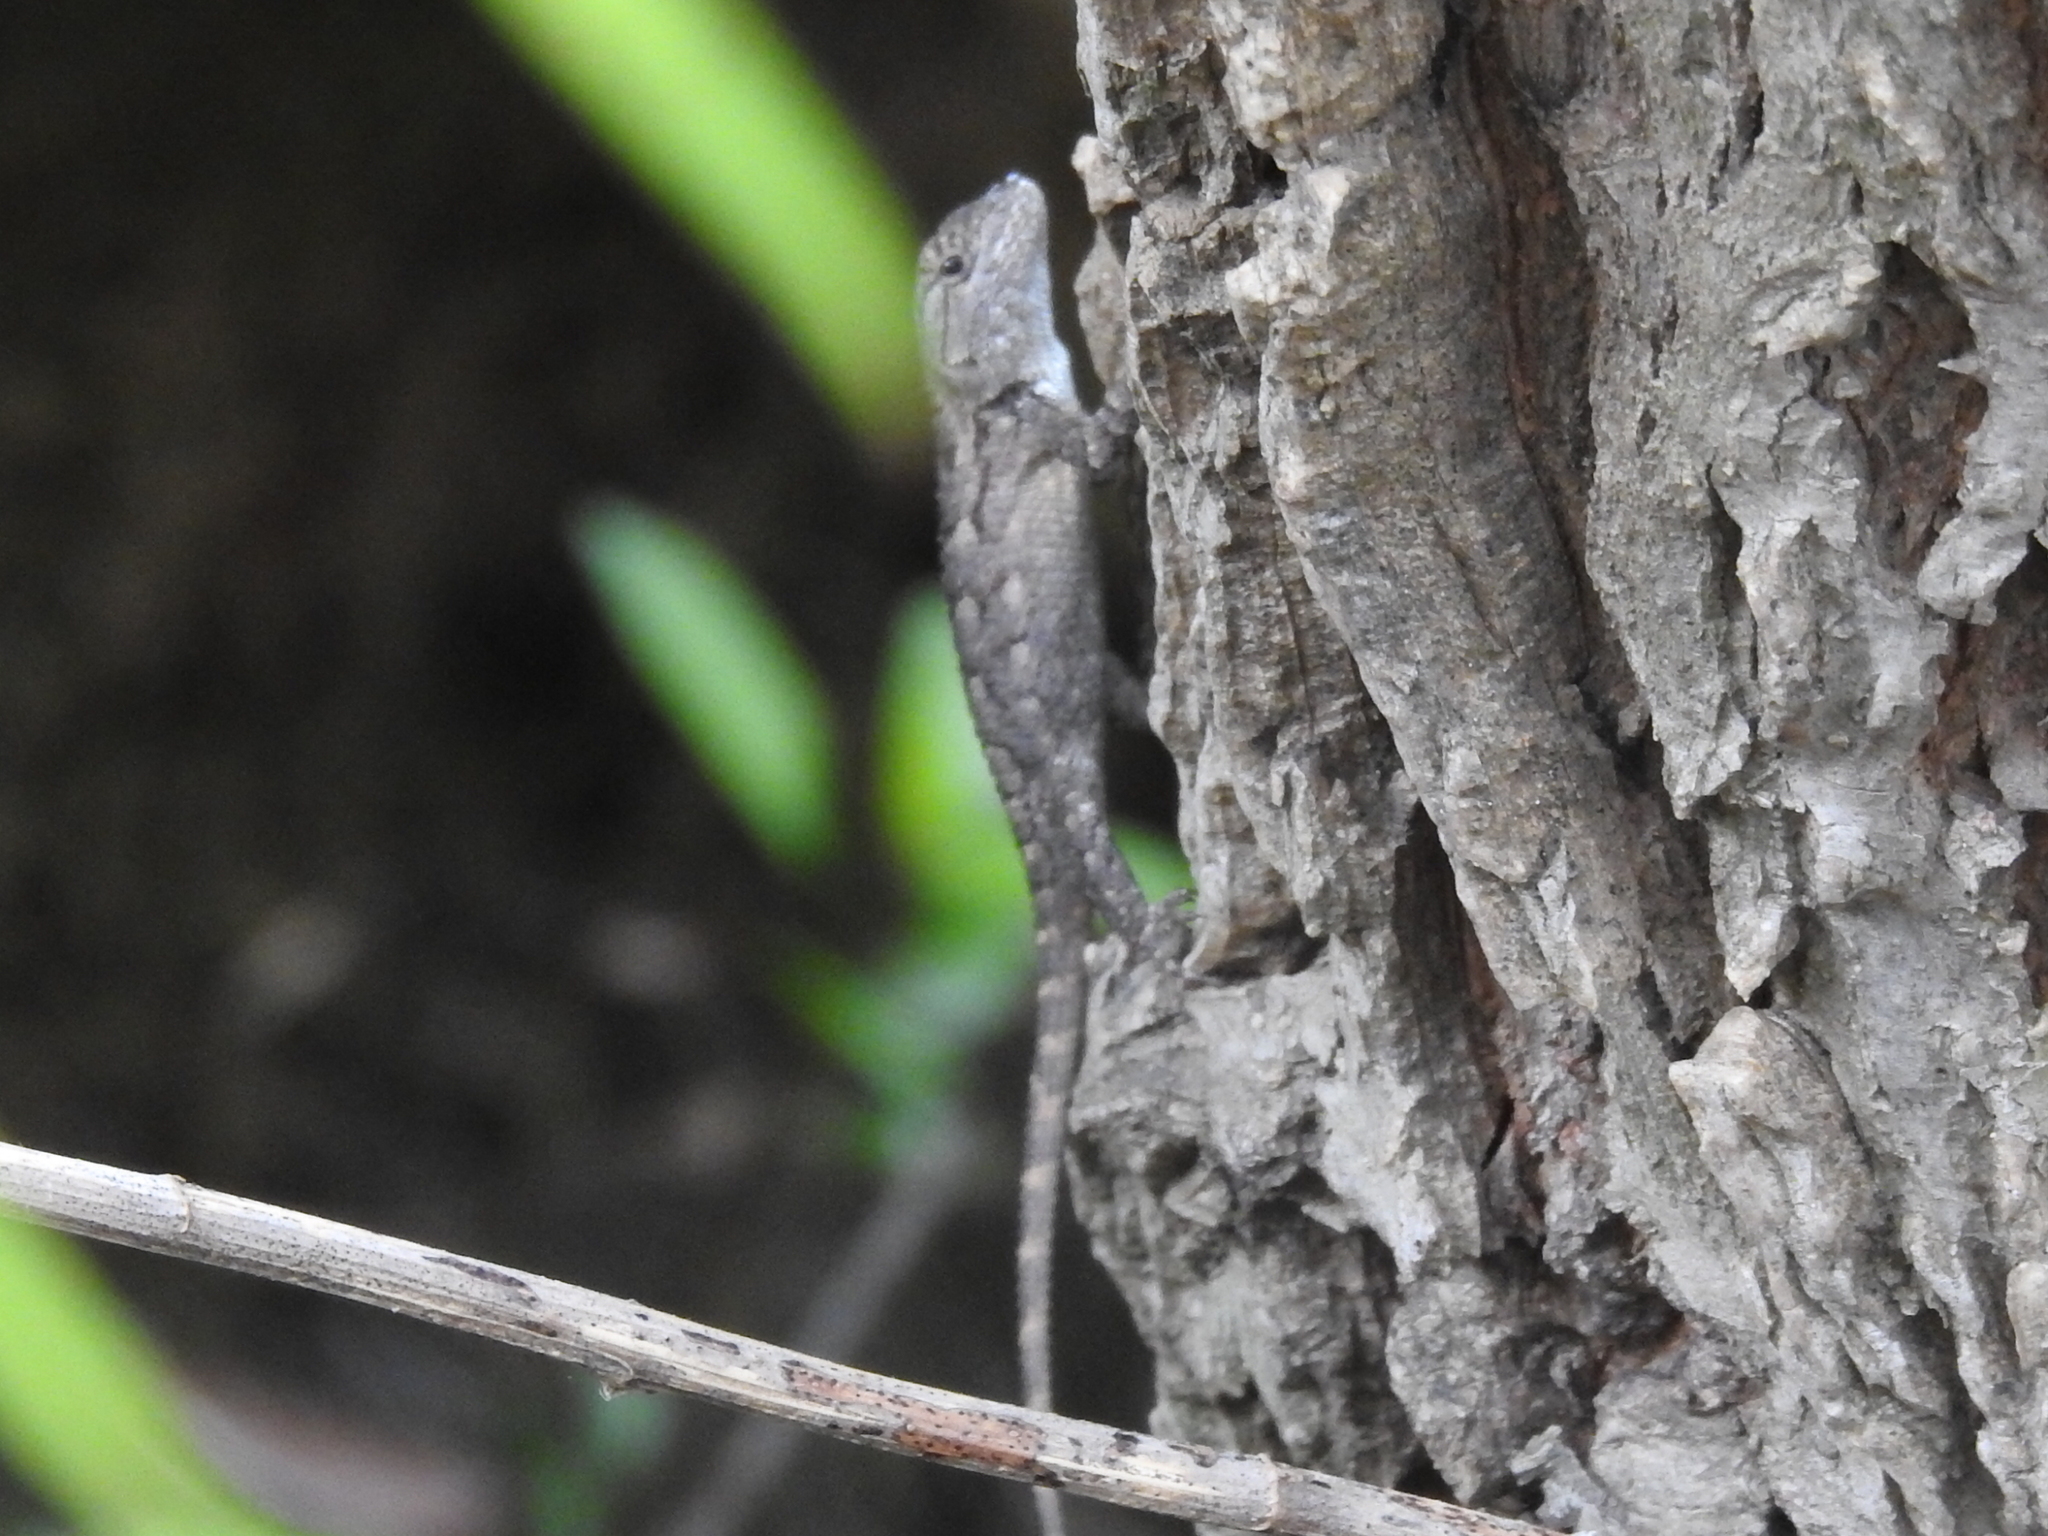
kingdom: Animalia
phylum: Chordata
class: Squamata
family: Phrynosomatidae
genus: Sceloporus
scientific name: Sceloporus olivaceus
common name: Texas spiny lizard
